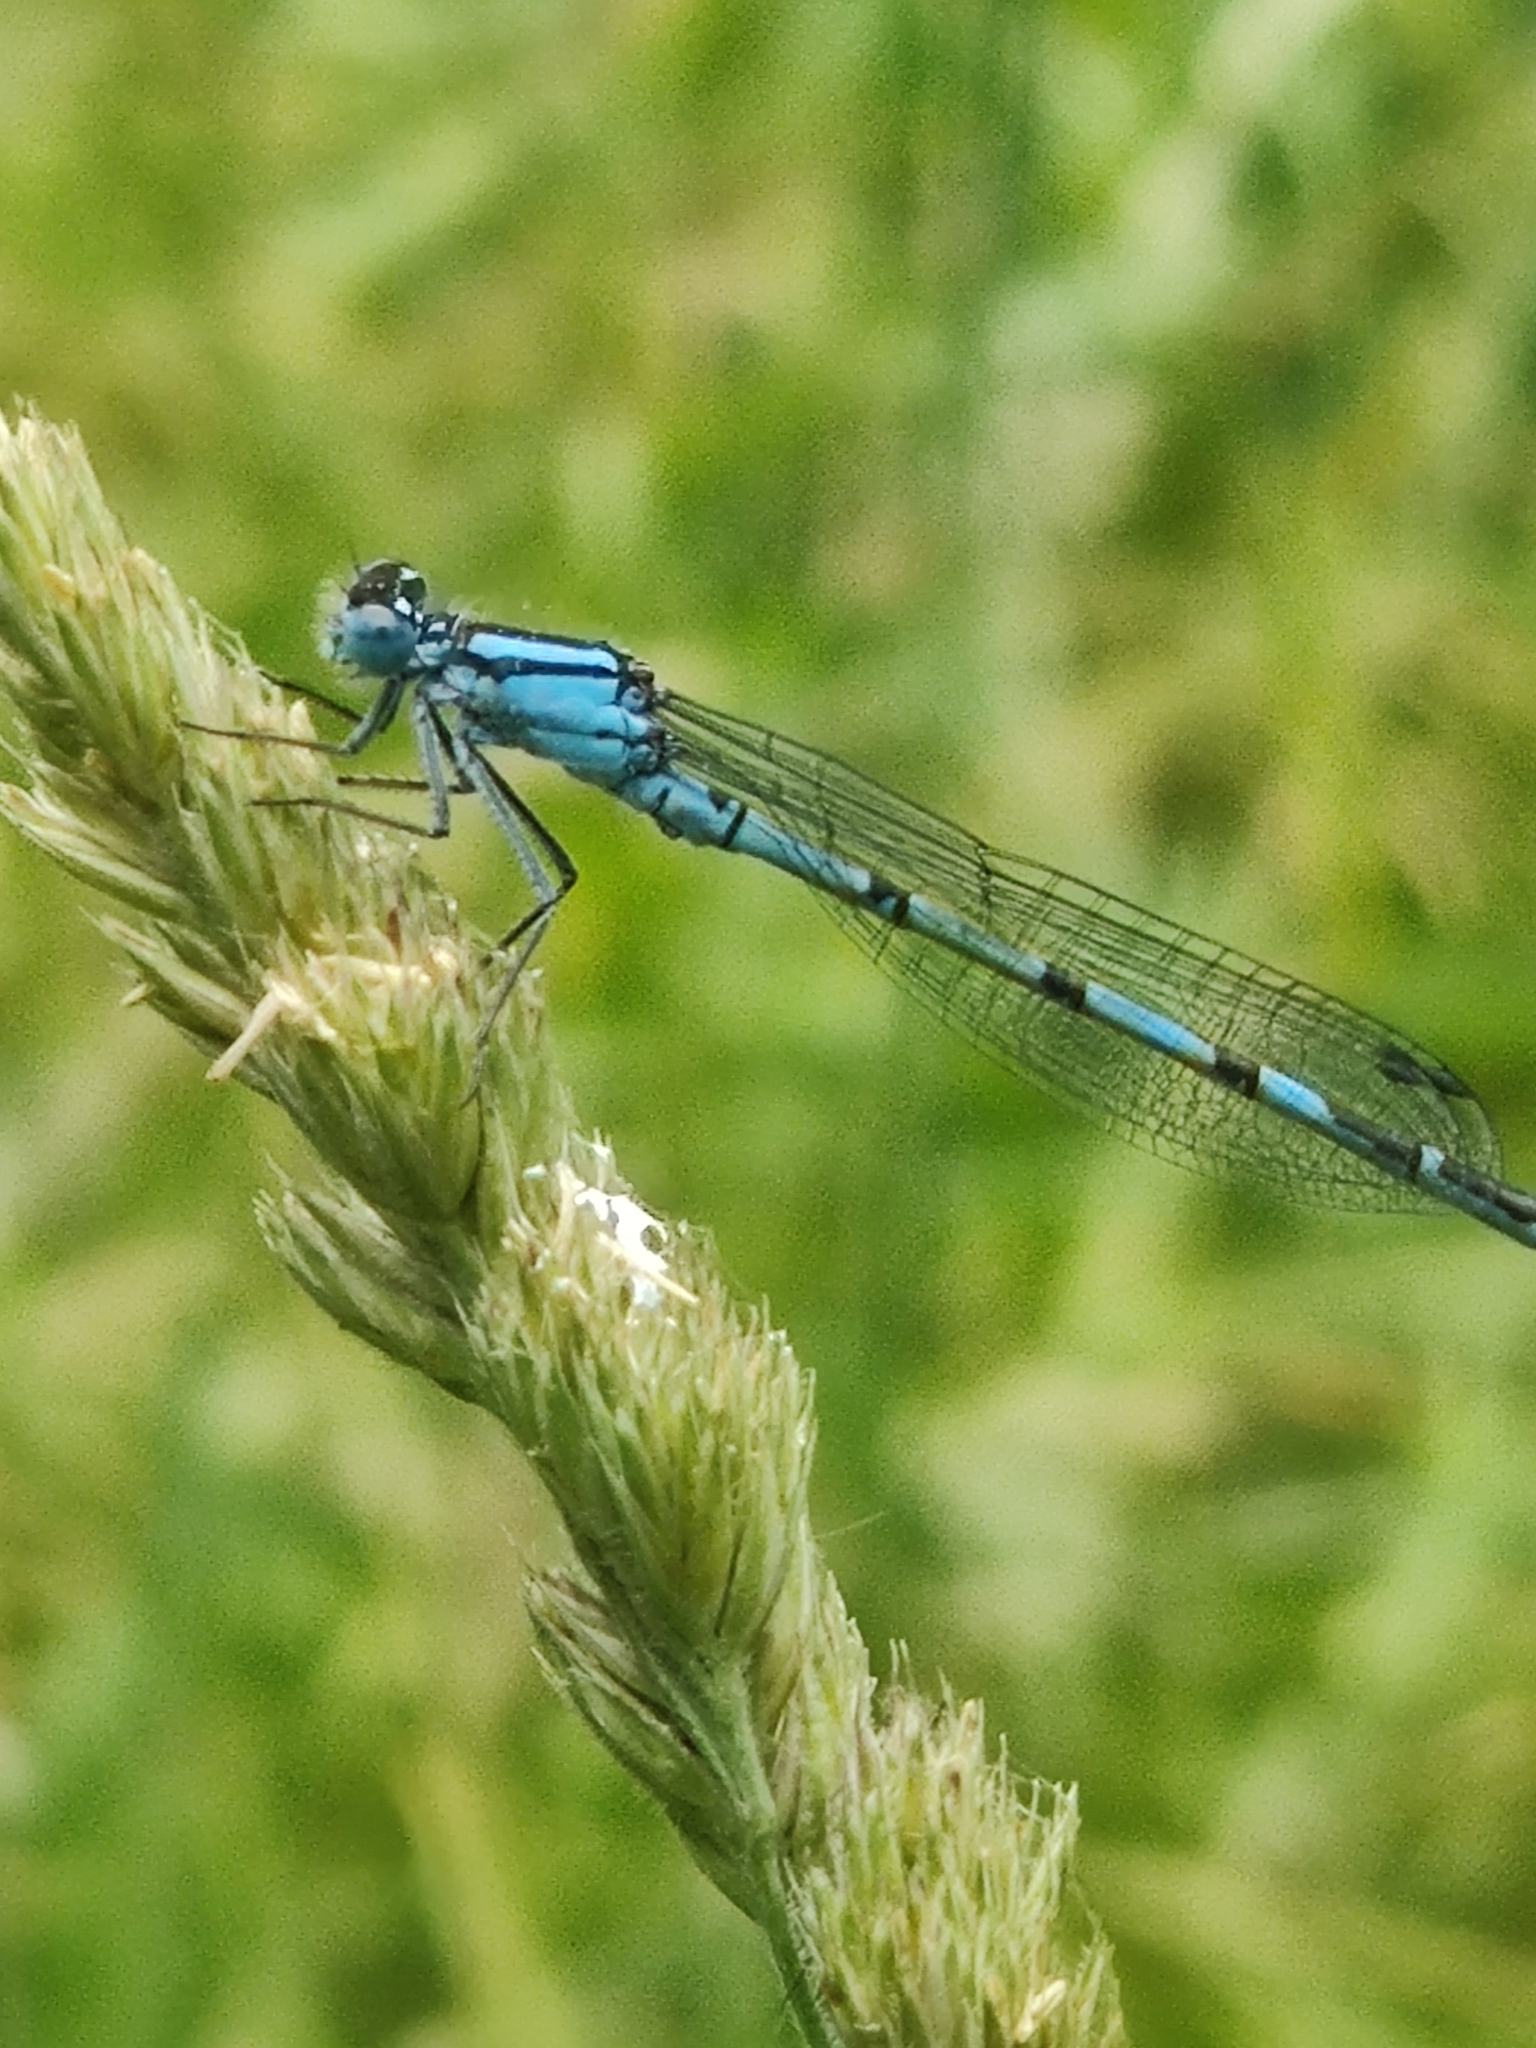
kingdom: Animalia
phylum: Arthropoda
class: Insecta
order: Odonata
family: Coenagrionidae
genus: Enallagma
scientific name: Enallagma cyathigerum
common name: Common blue damselfly
